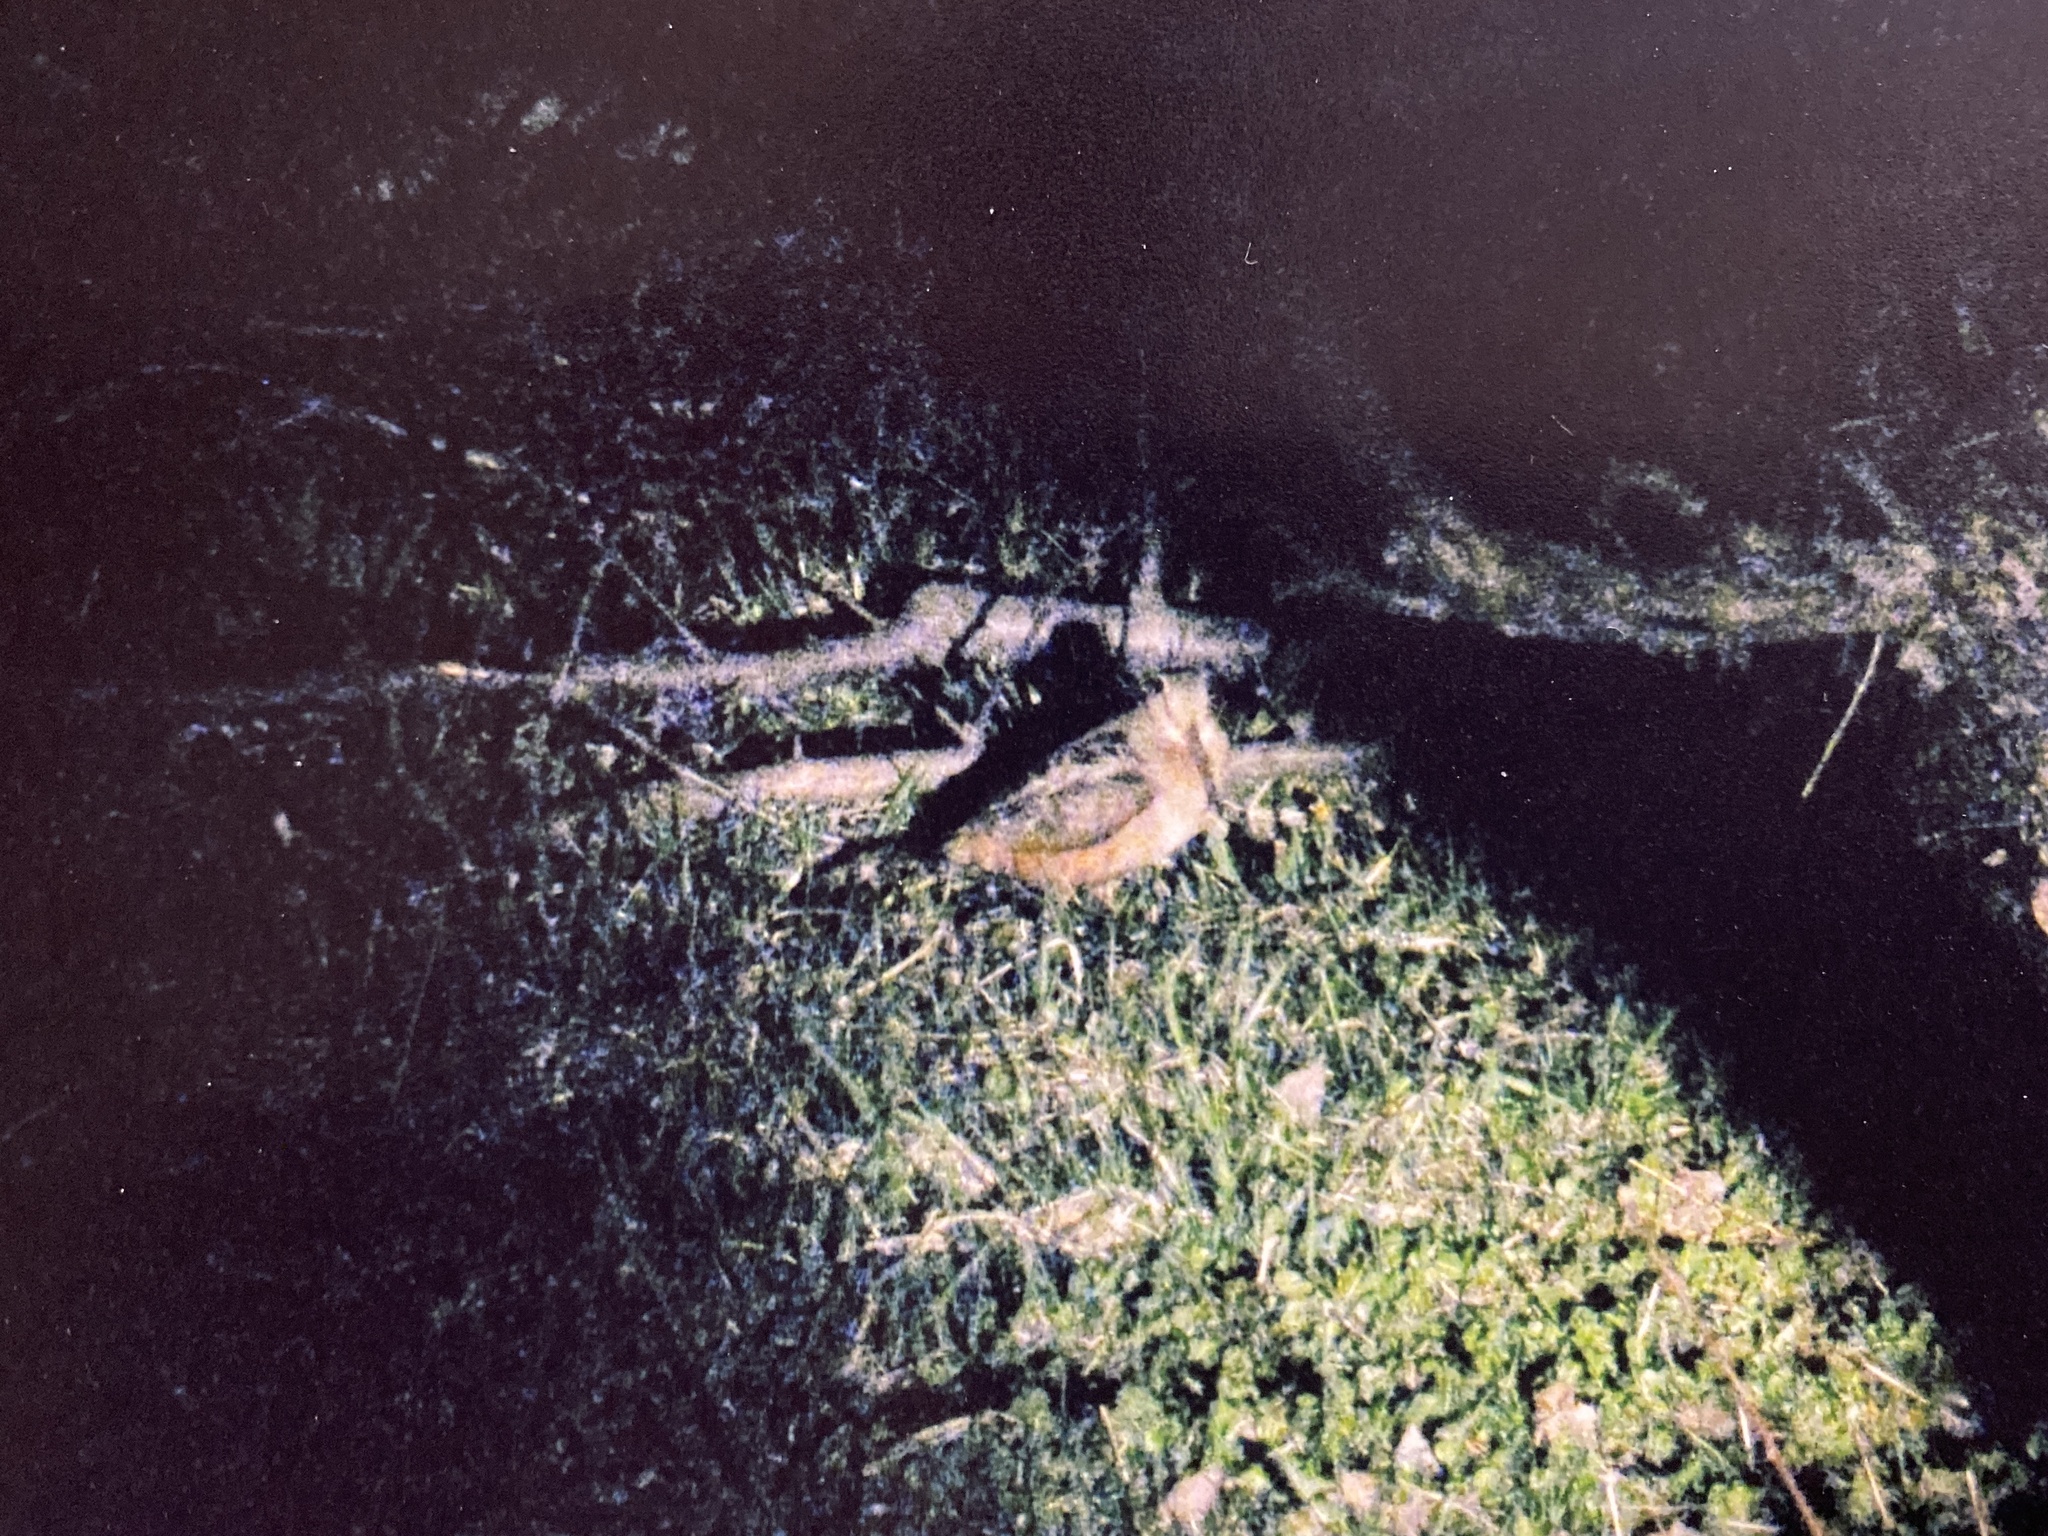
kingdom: Animalia
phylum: Chordata
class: Aves
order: Charadriiformes
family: Scolopacidae
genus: Scolopax
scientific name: Scolopax minor
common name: American woodcock
